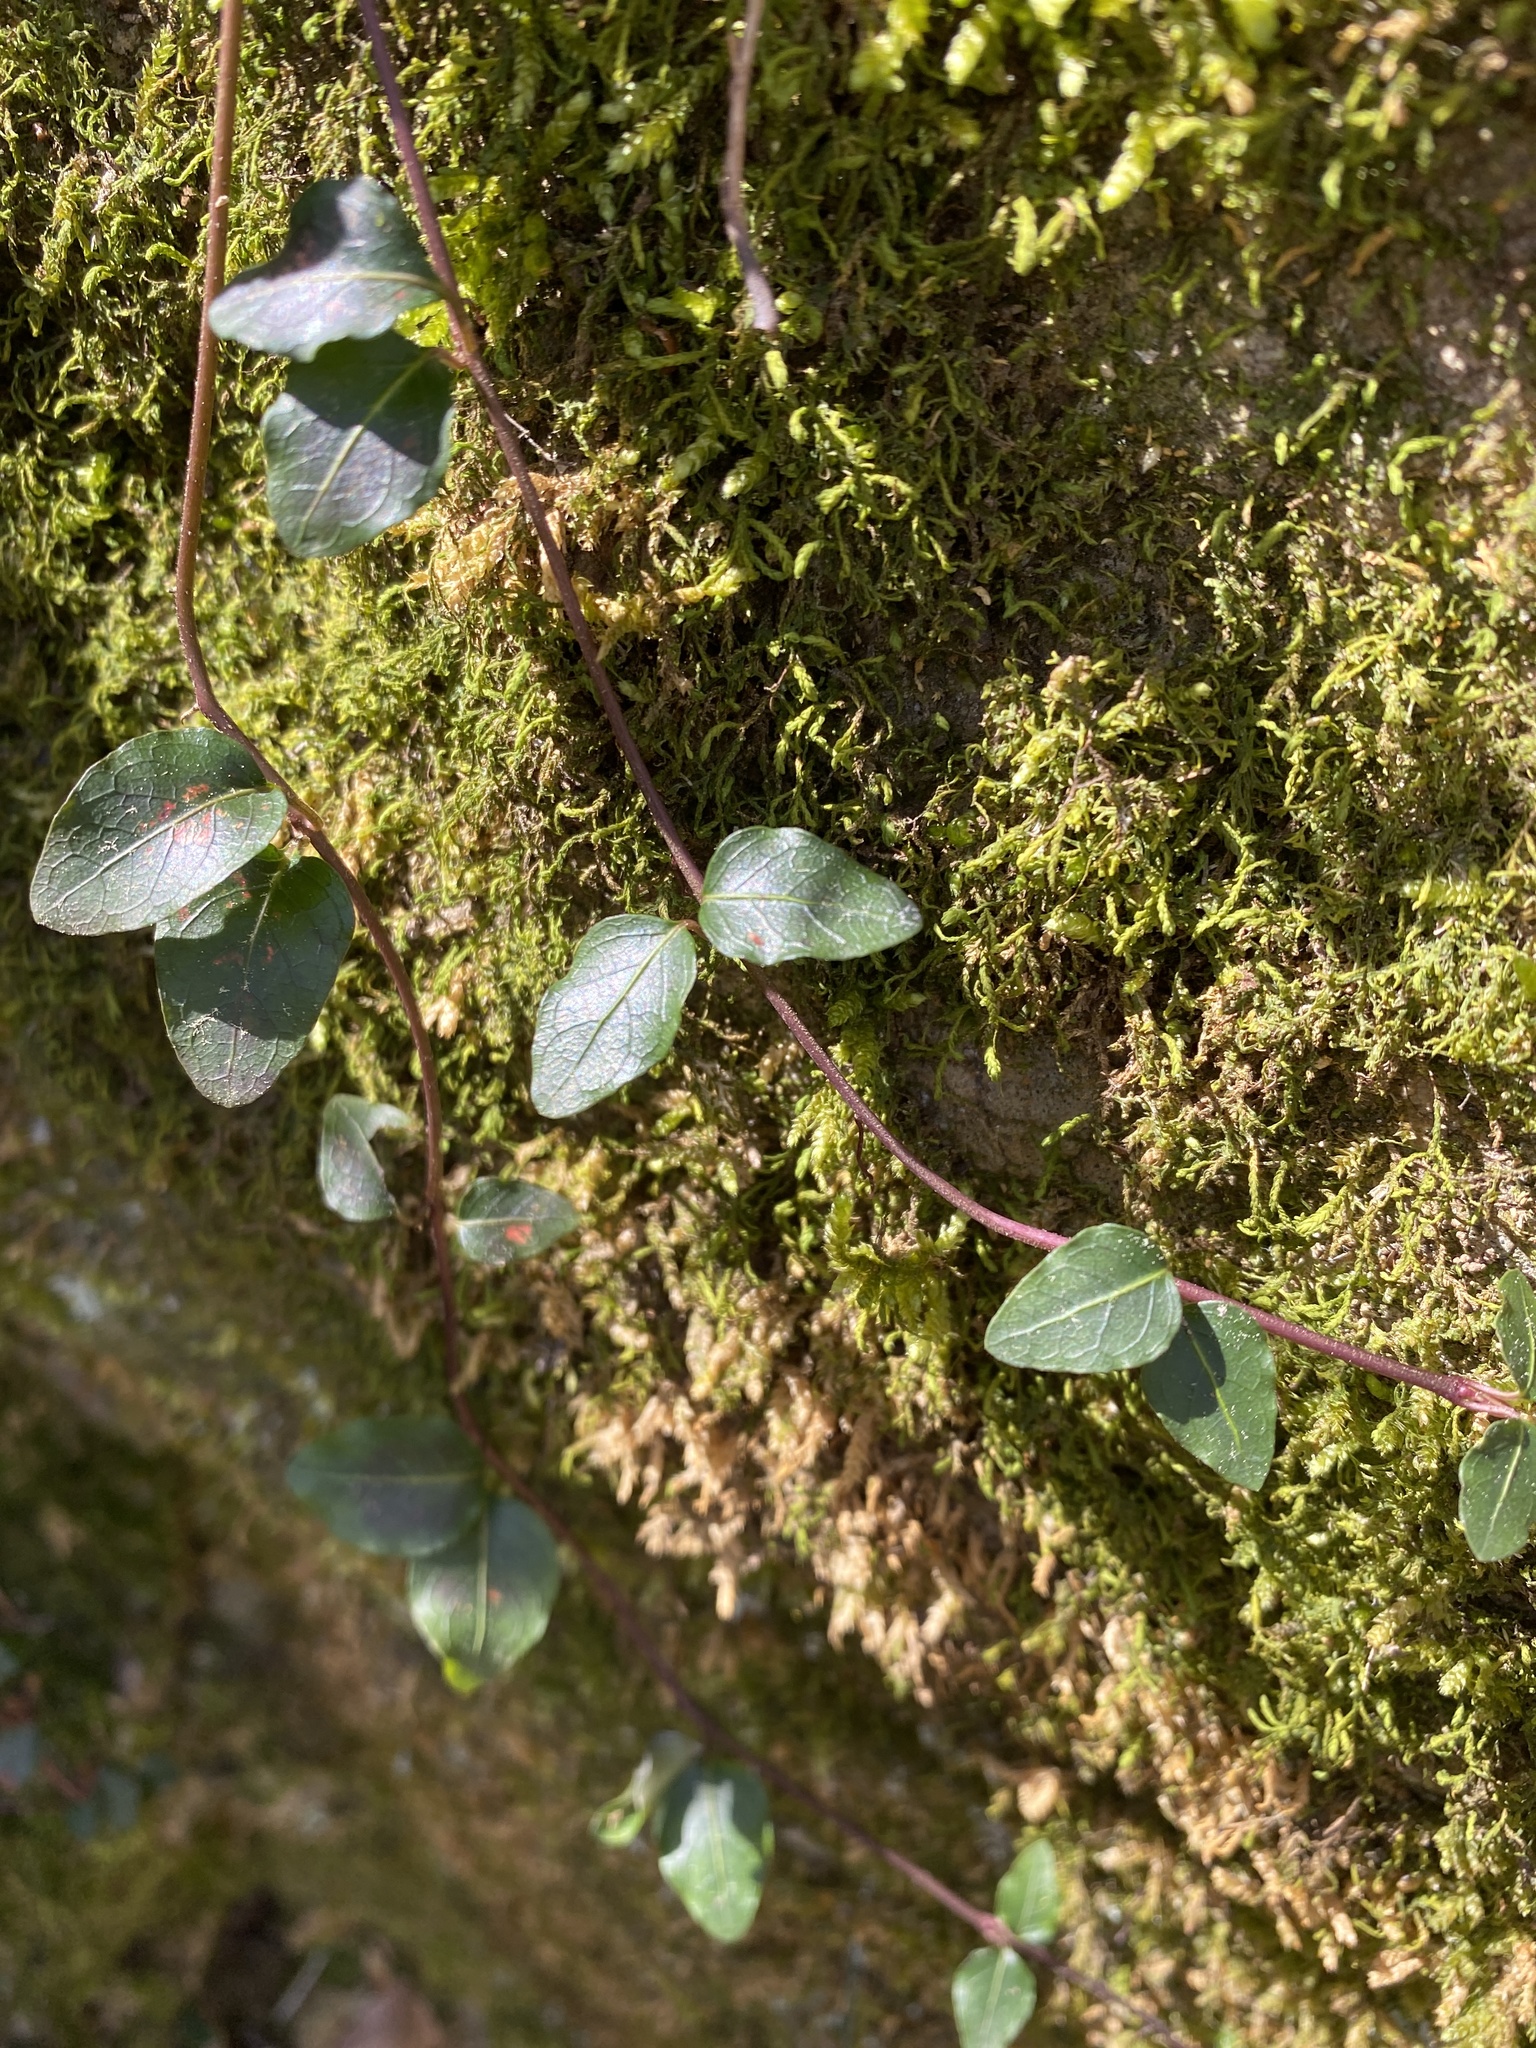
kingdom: Plantae
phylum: Tracheophyta
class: Magnoliopsida
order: Gentianales
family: Rubiaceae
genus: Mitchella
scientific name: Mitchella repens
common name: Partridge-berry
